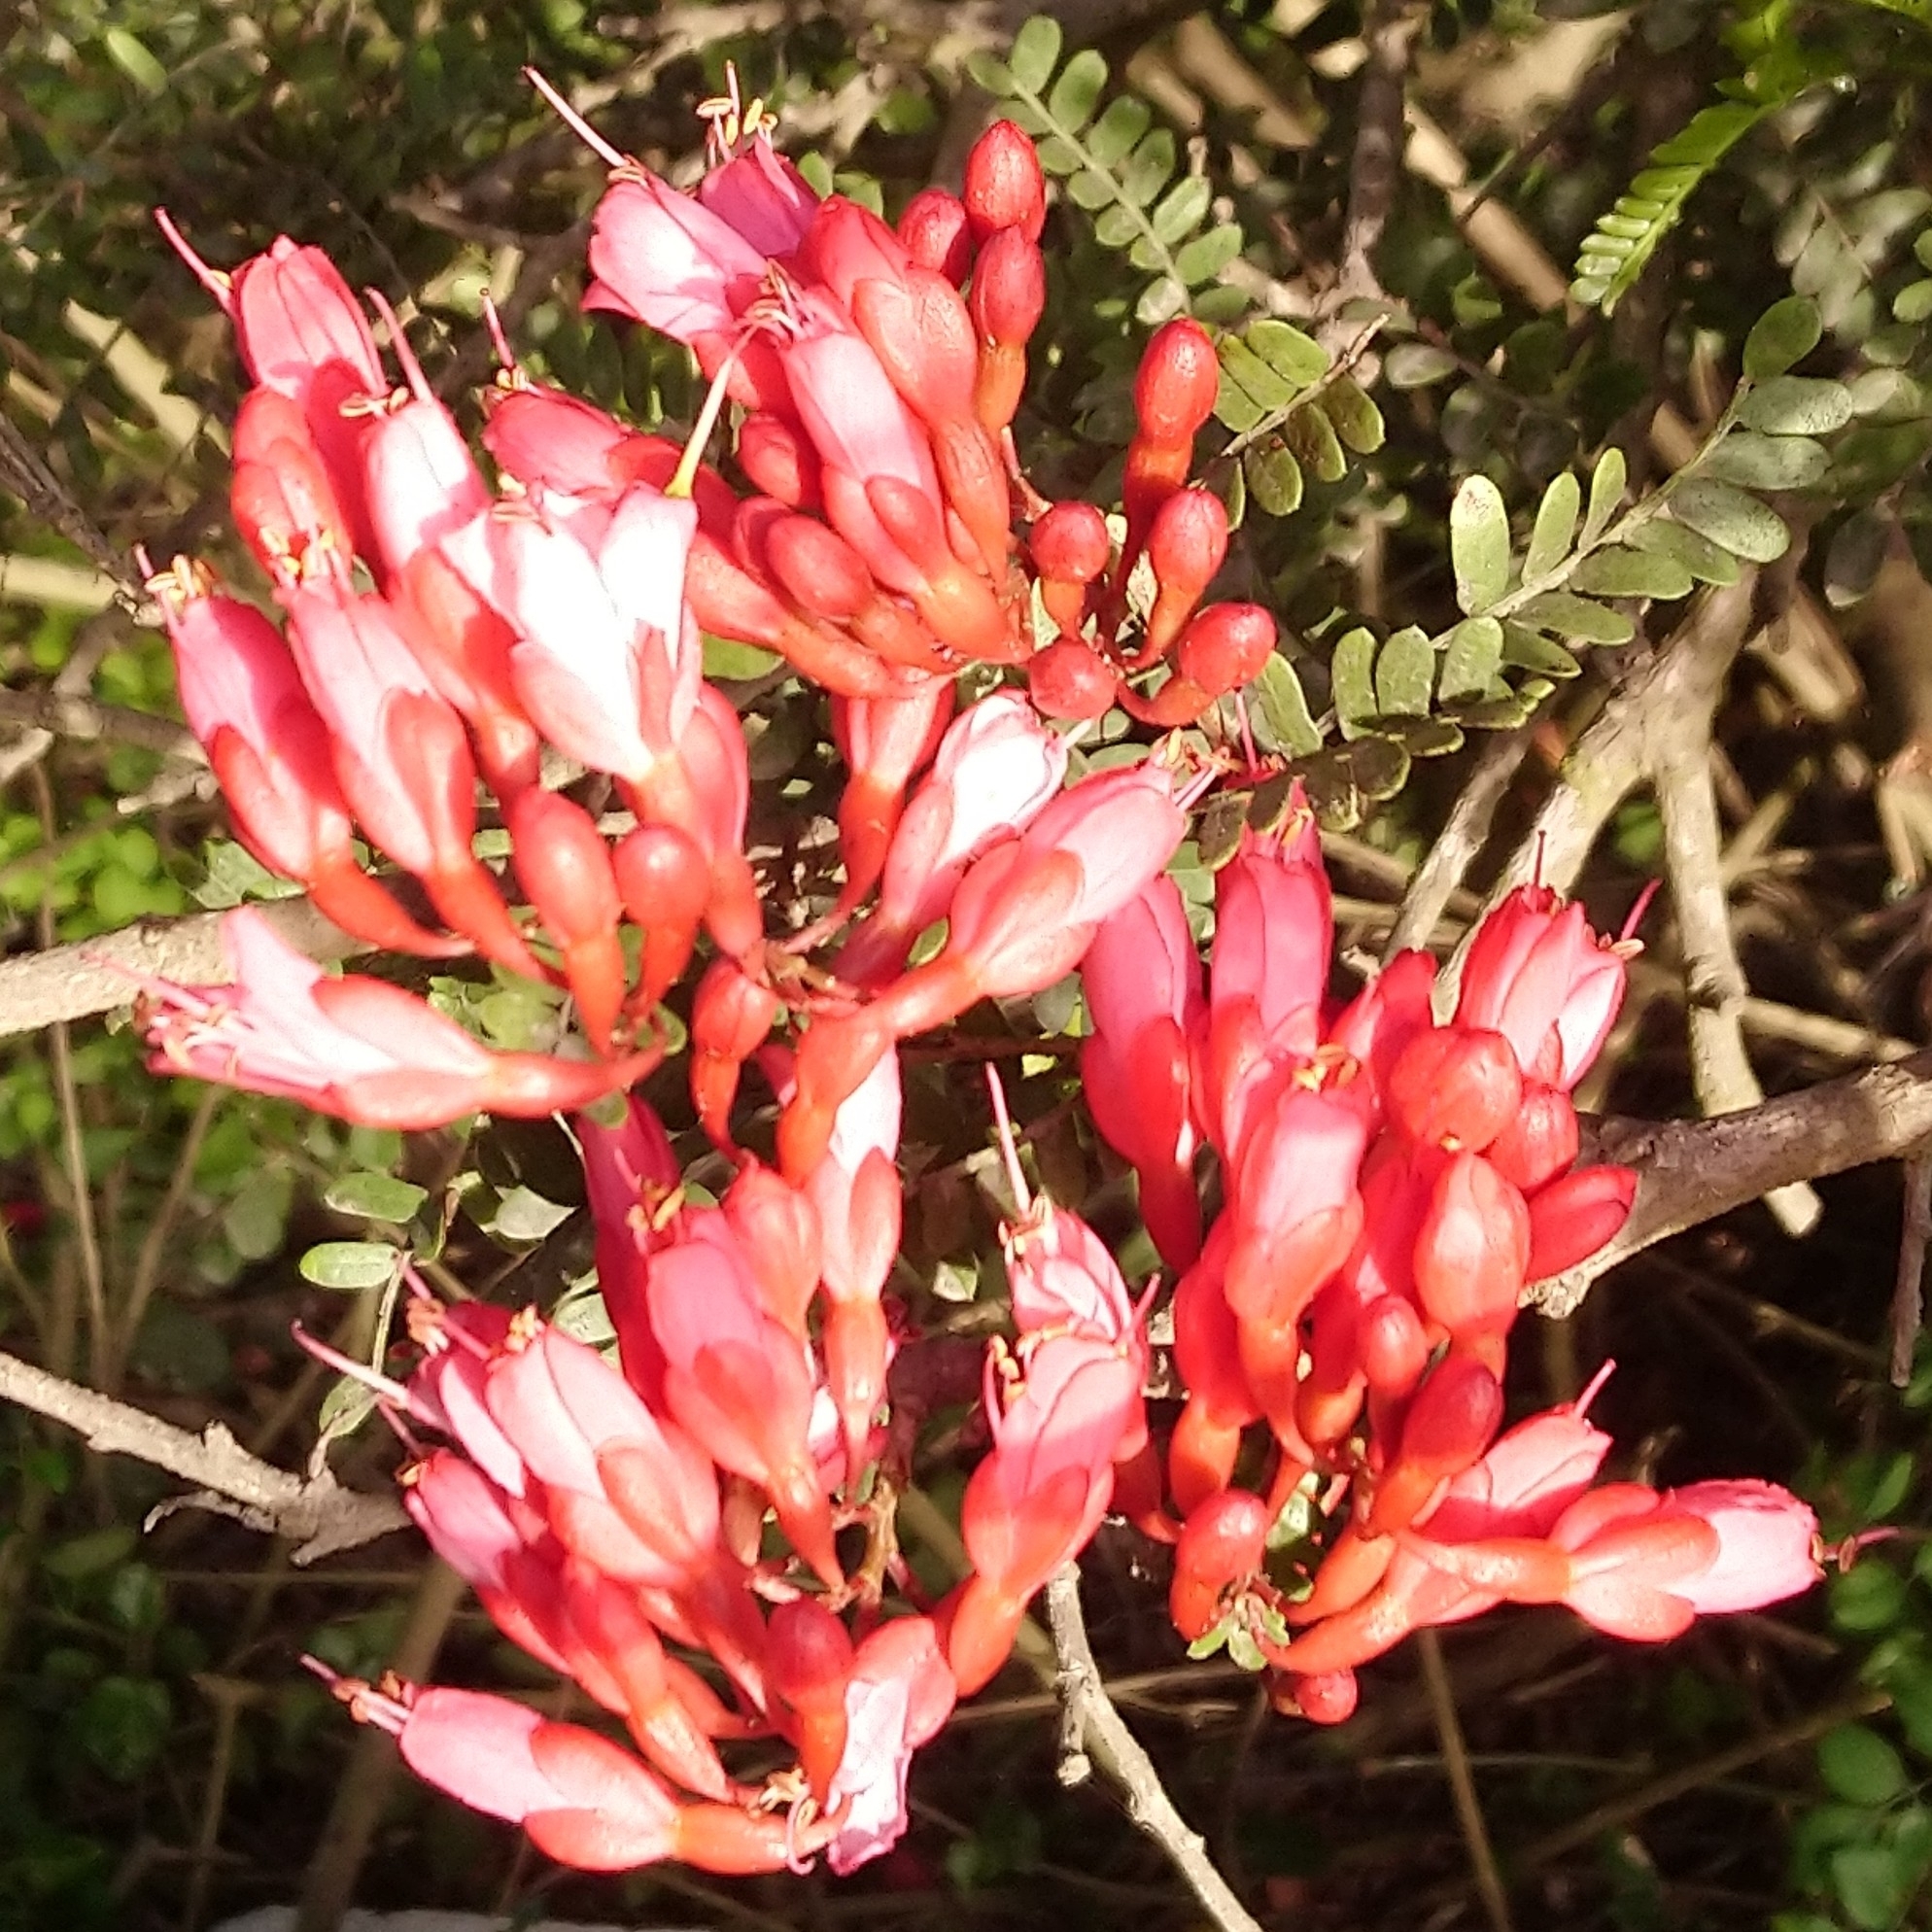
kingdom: Plantae
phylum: Tracheophyta
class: Magnoliopsida
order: Fabales
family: Fabaceae
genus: Schotia
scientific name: Schotia afra
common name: Hottentot's bean
